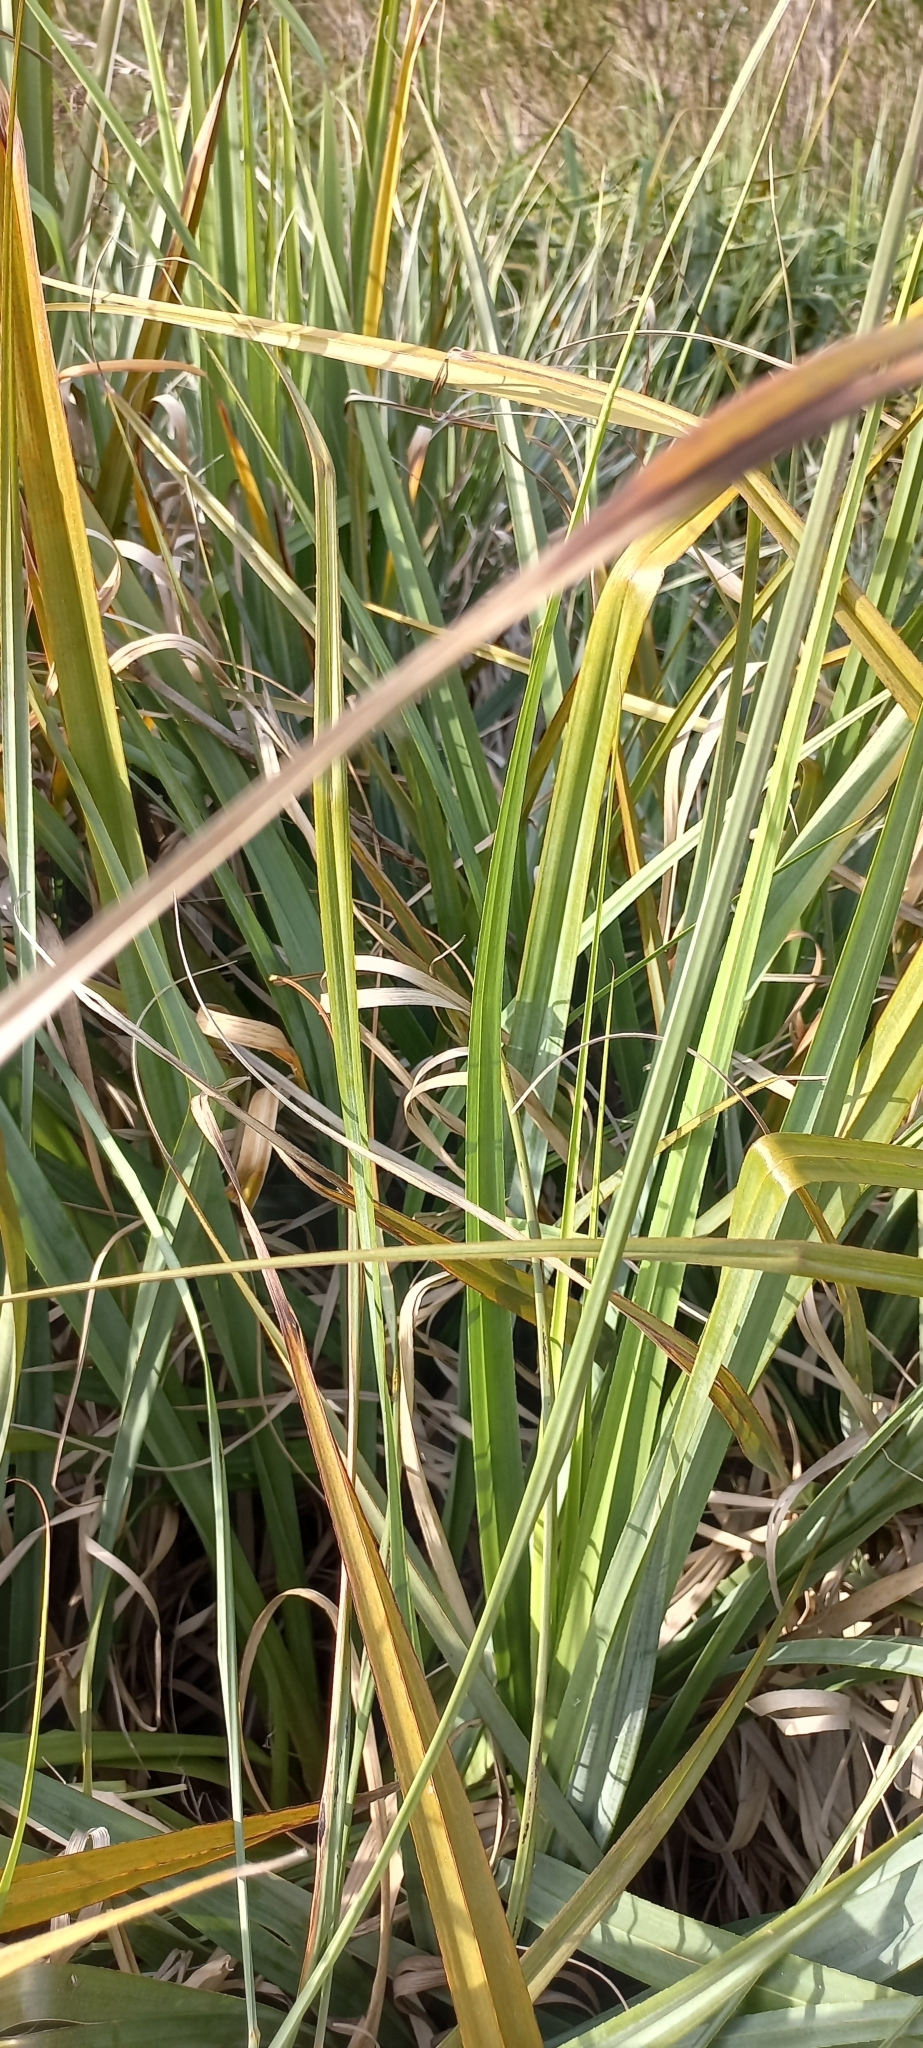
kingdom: Plantae
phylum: Tracheophyta
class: Liliopsida
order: Poales
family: Thurniaceae
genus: Prionium
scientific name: Prionium serratum
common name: Palmiet
